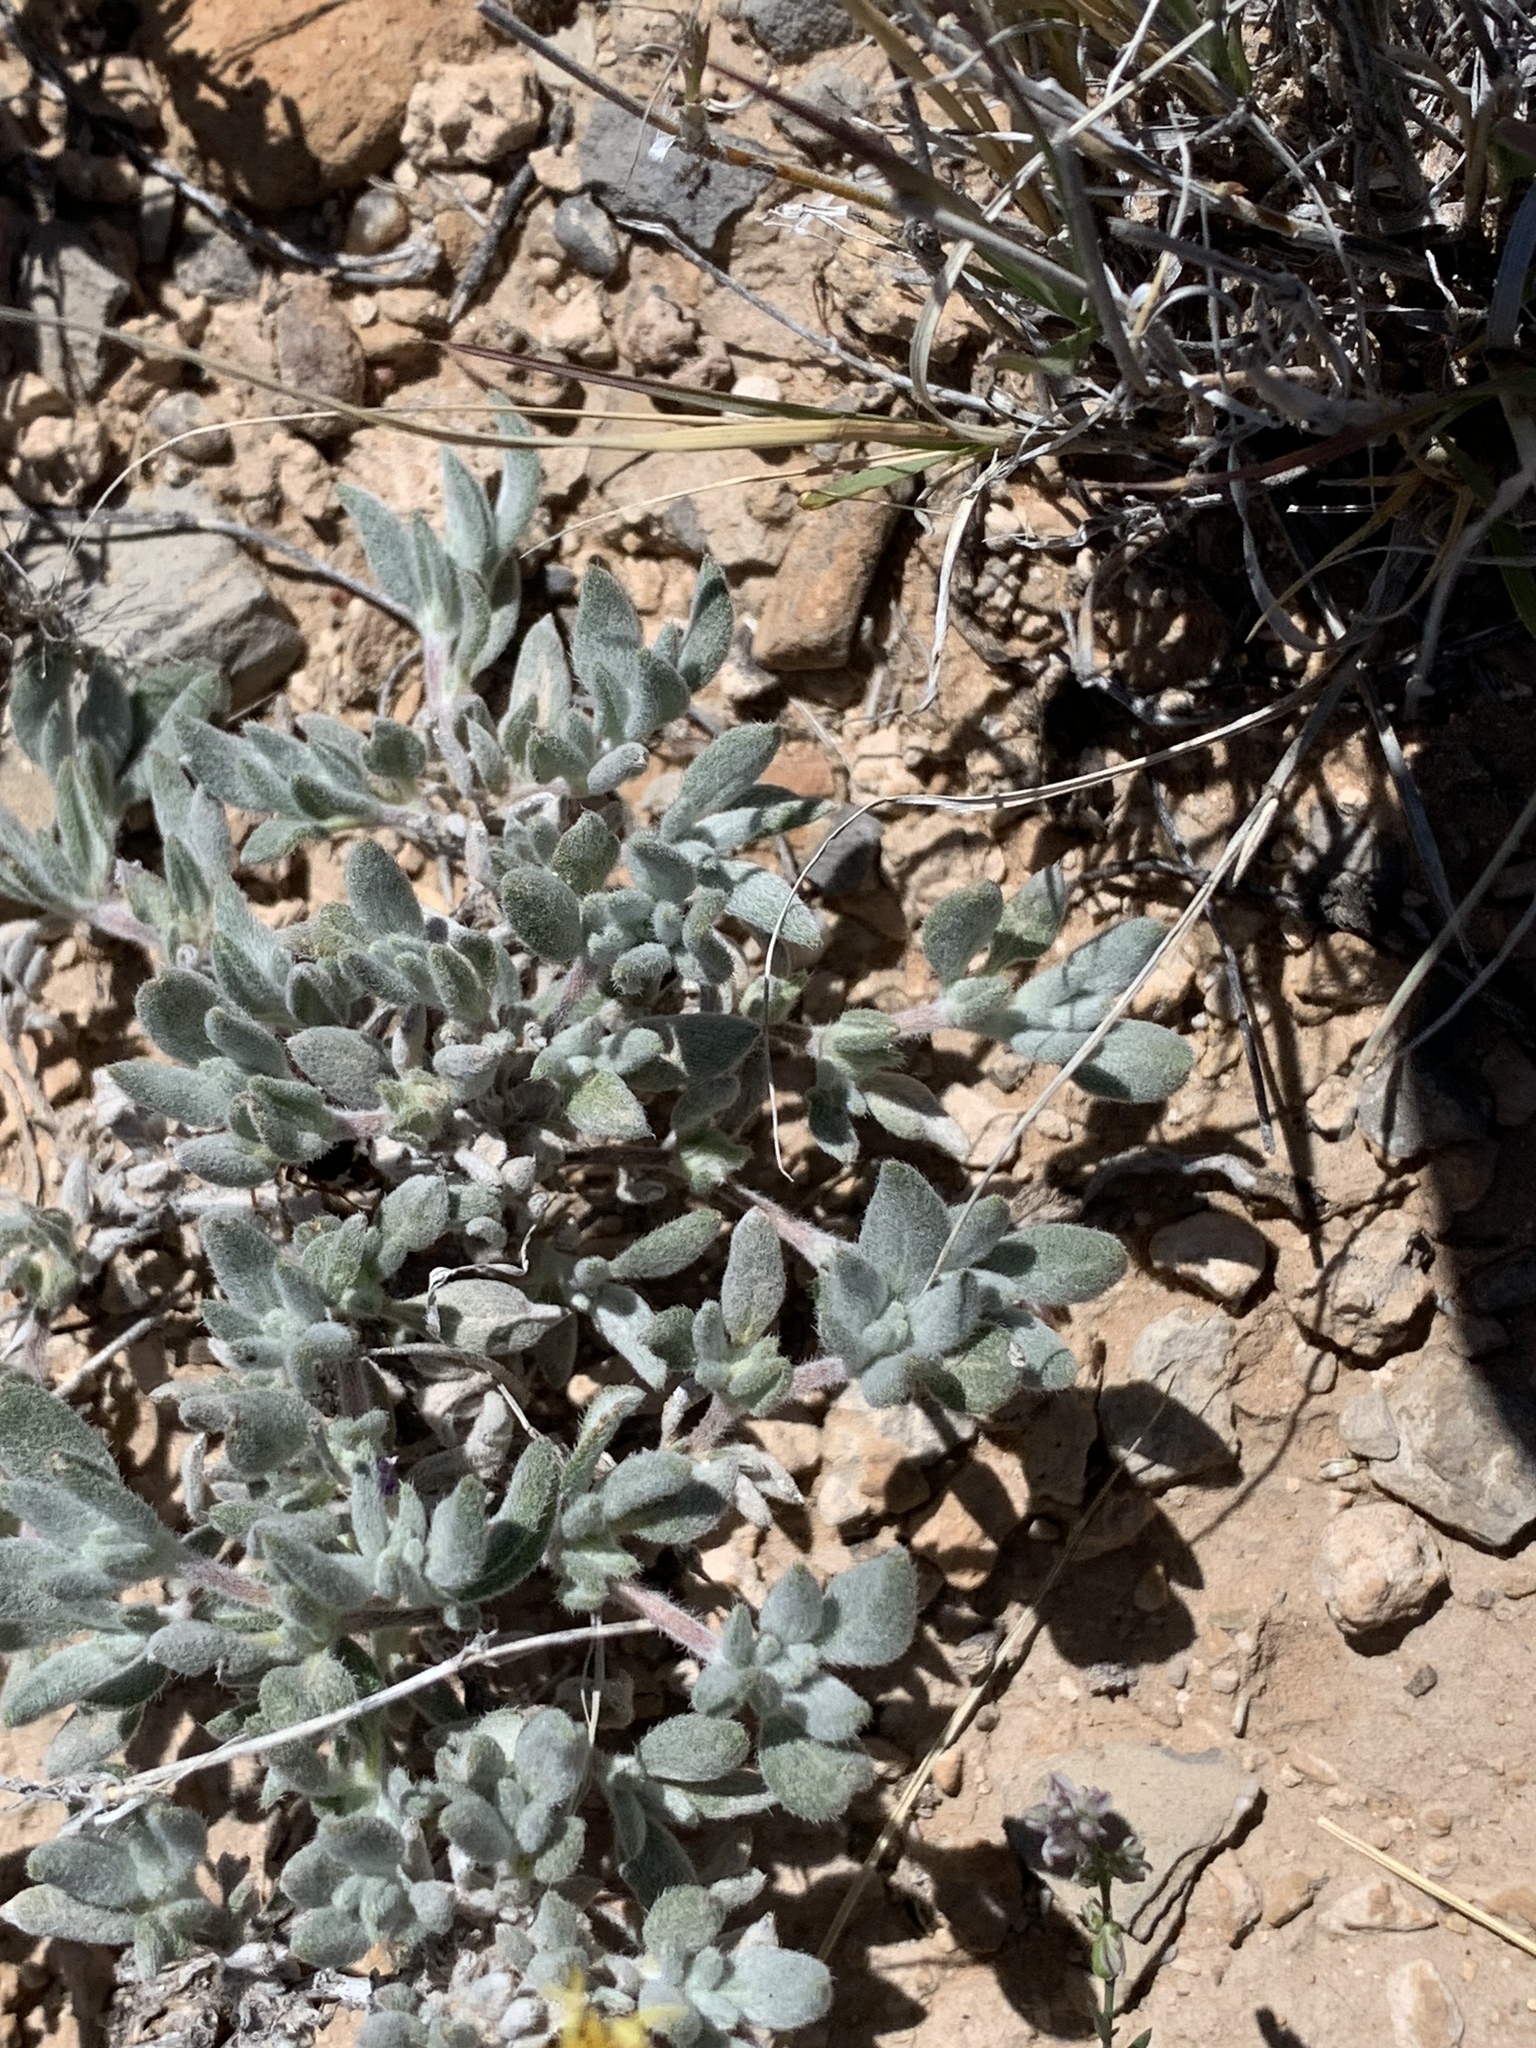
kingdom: Plantae
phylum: Tracheophyta
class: Magnoliopsida
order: Boraginales
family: Ehretiaceae
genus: Tiquilia
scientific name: Tiquilia canescens
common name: Hairy tiquilia
